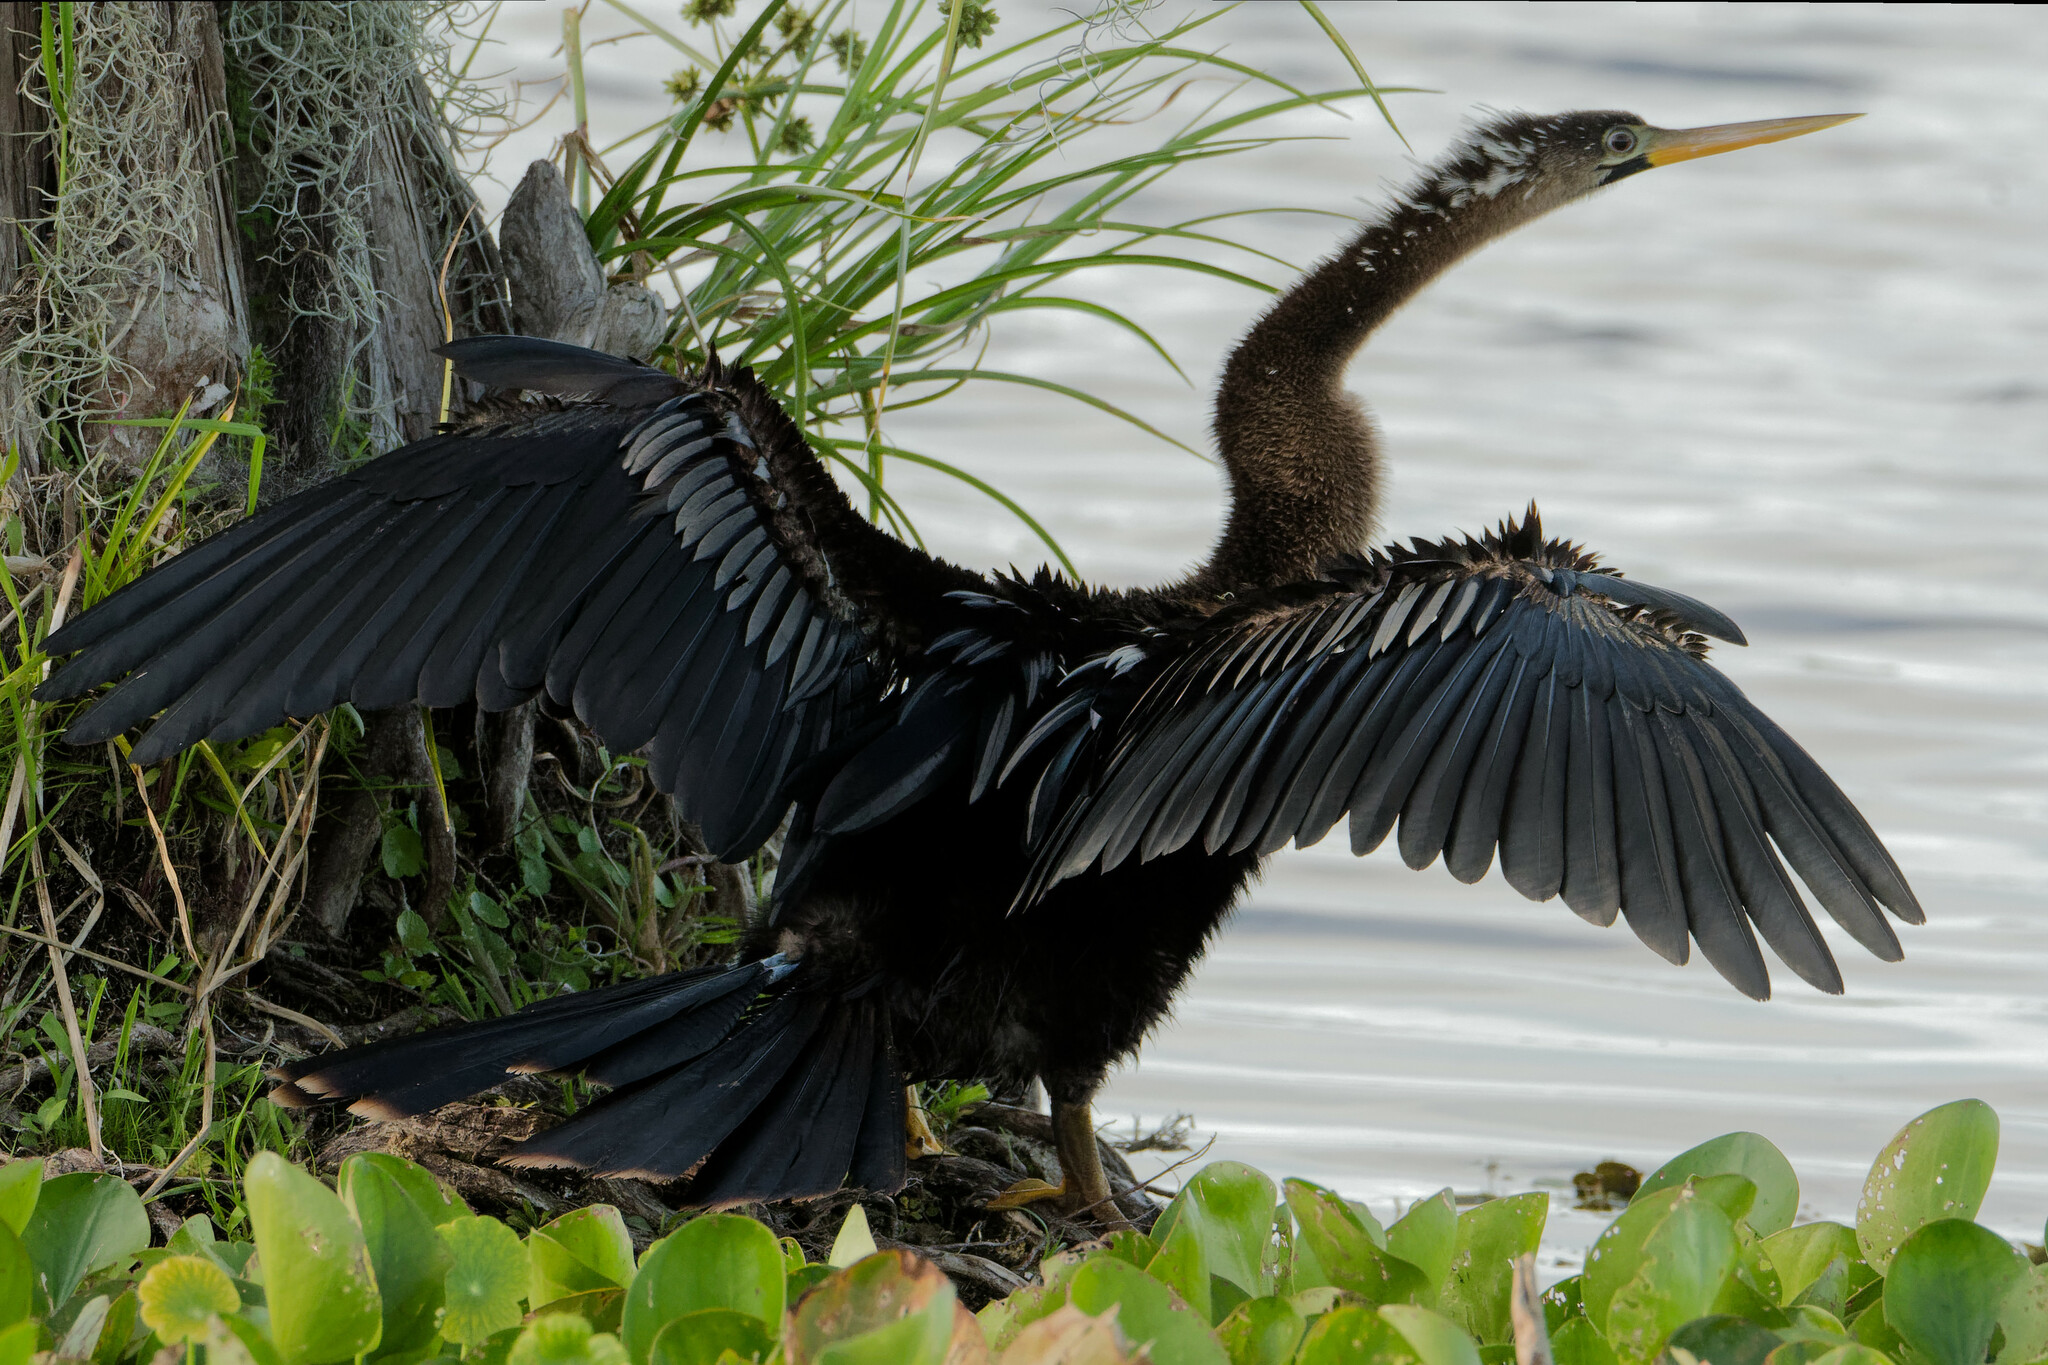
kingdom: Animalia
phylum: Chordata
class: Aves
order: Suliformes
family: Anhingidae
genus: Anhinga
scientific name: Anhinga anhinga
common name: Anhinga
